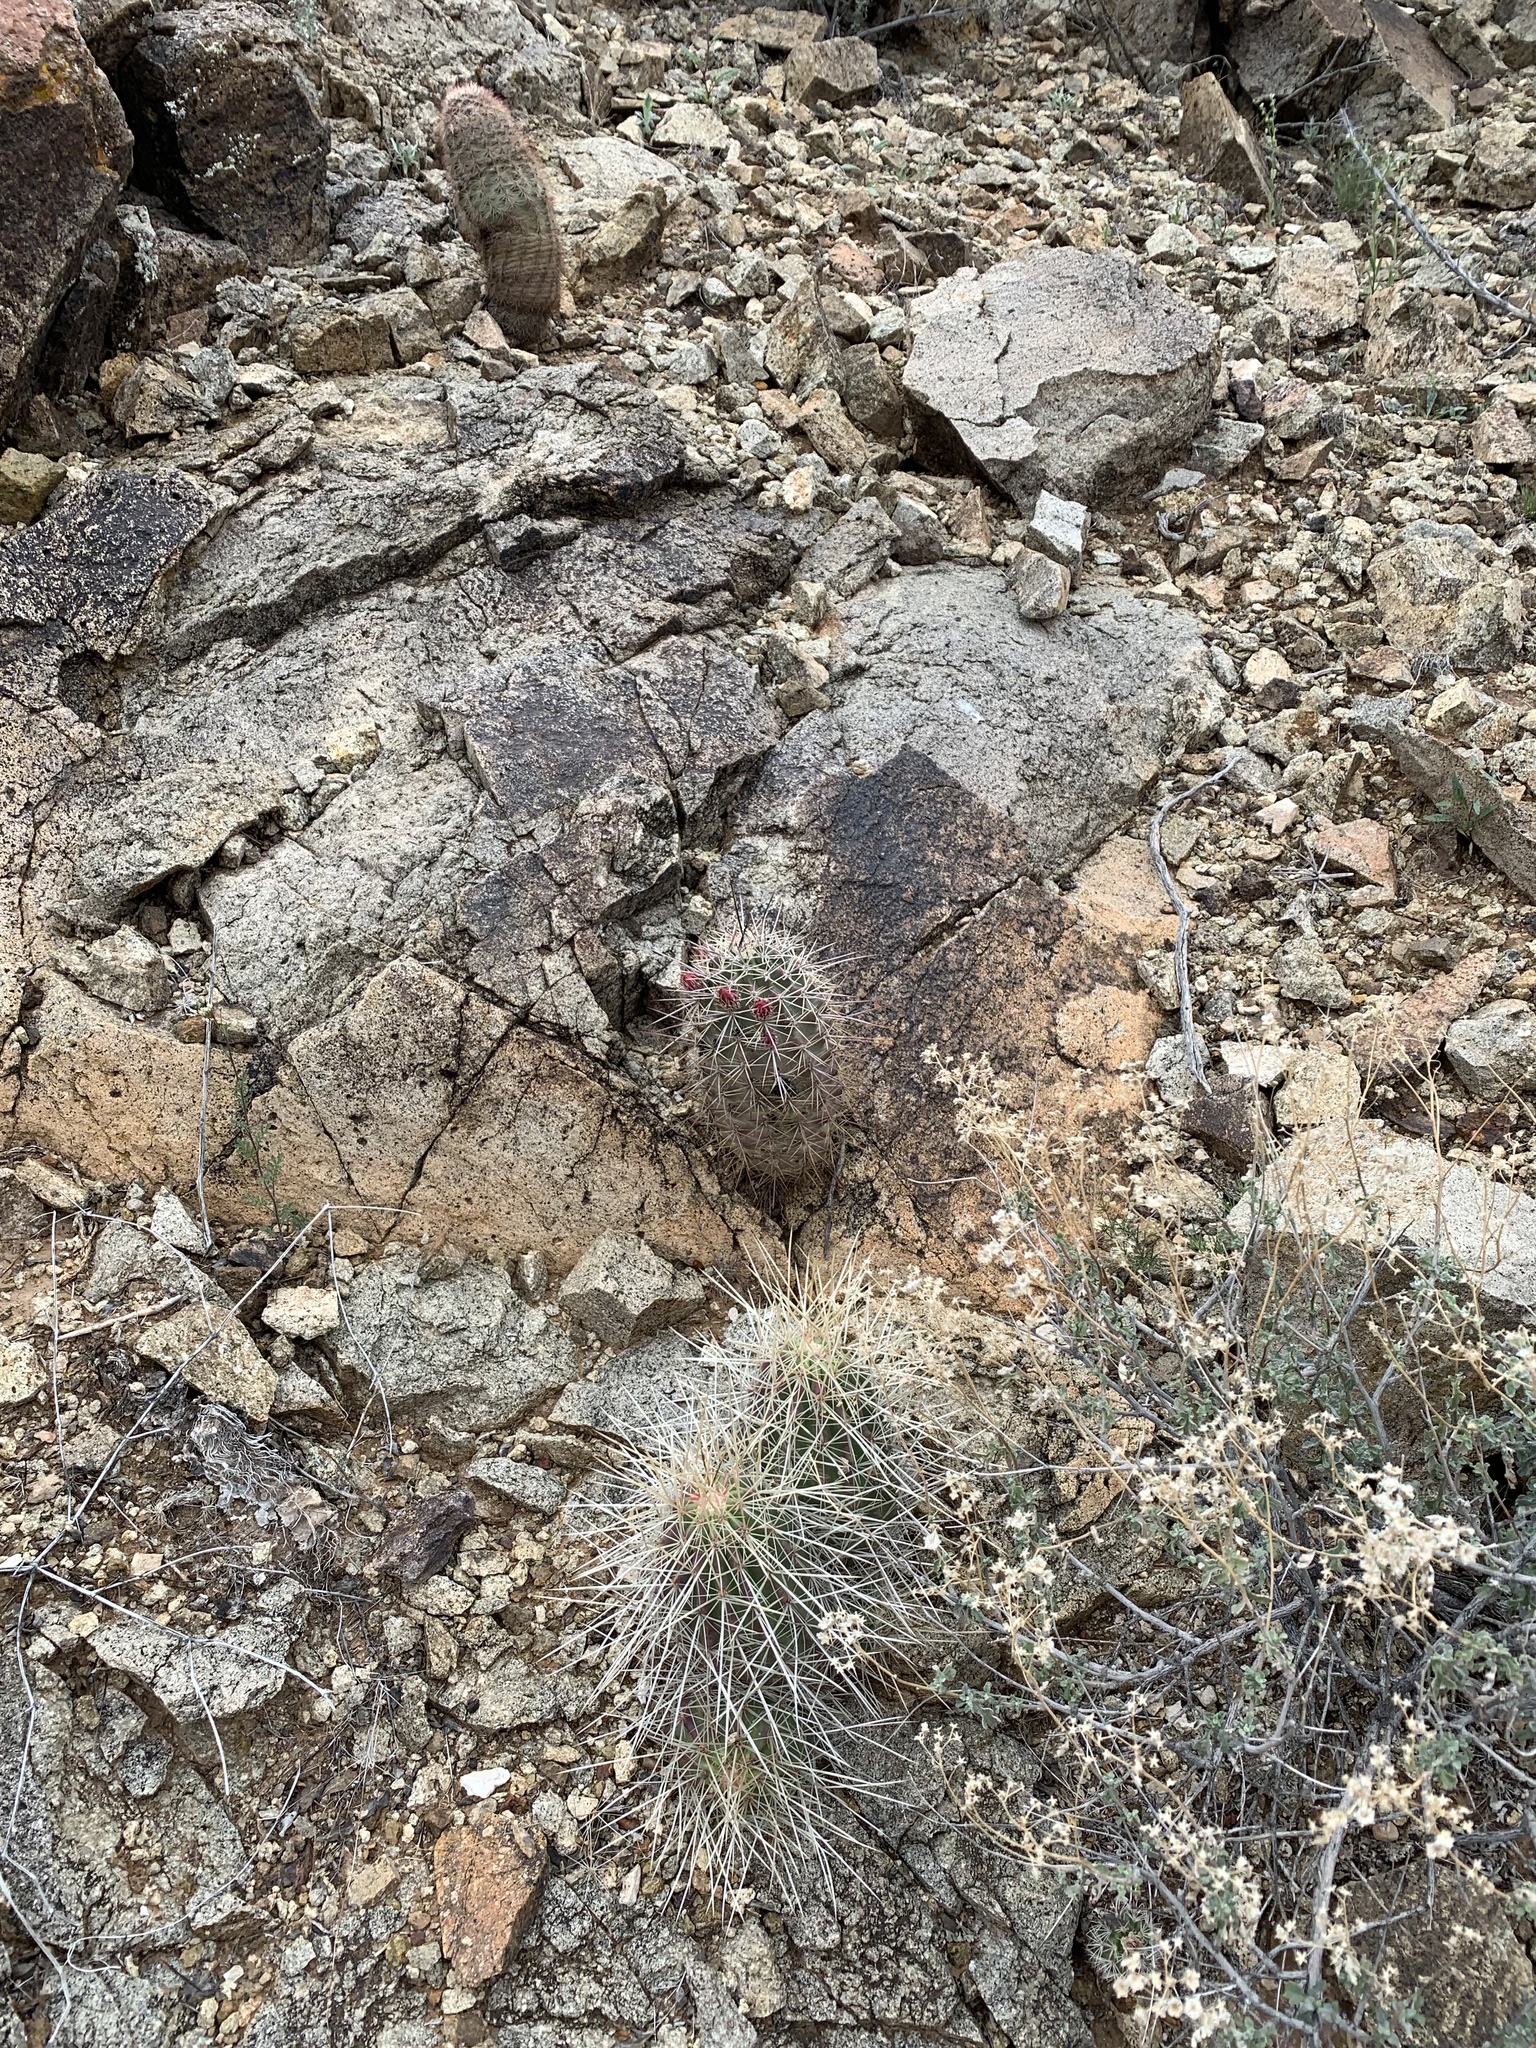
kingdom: Plantae
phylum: Tracheophyta
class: Magnoliopsida
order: Caryophyllales
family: Cactaceae
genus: Echinocereus
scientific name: Echinocereus dasyacanthus
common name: Spiny hedgehog cactus
